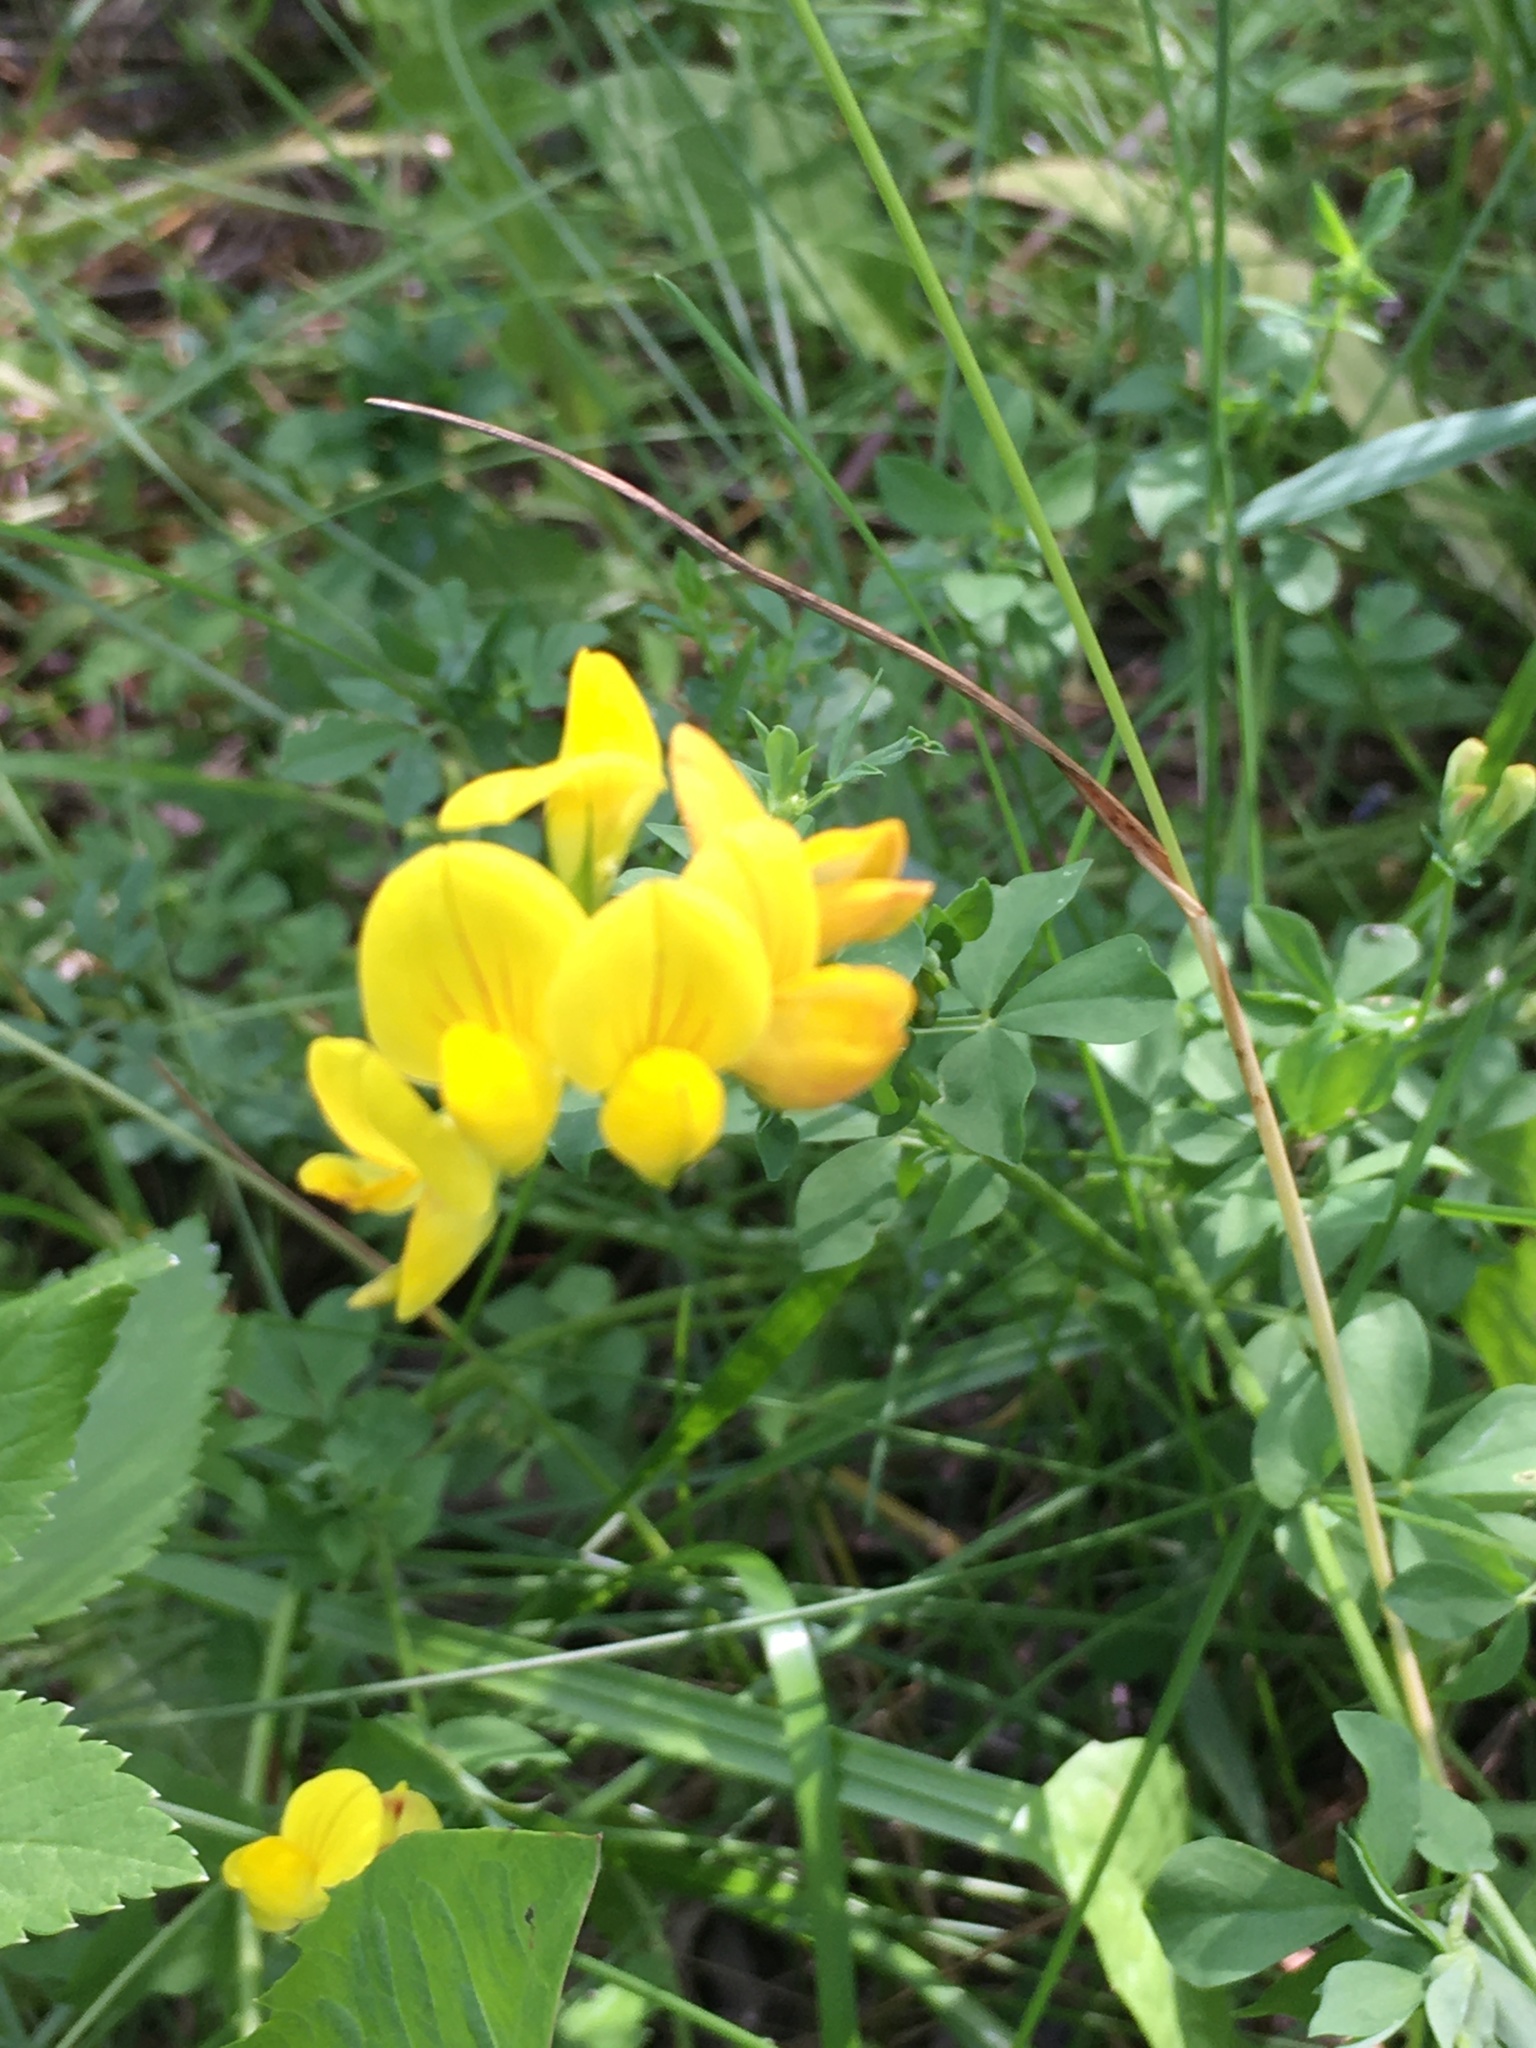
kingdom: Plantae
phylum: Tracheophyta
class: Magnoliopsida
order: Fabales
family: Fabaceae
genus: Lotus
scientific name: Lotus corniculatus
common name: Common bird's-foot-trefoil
